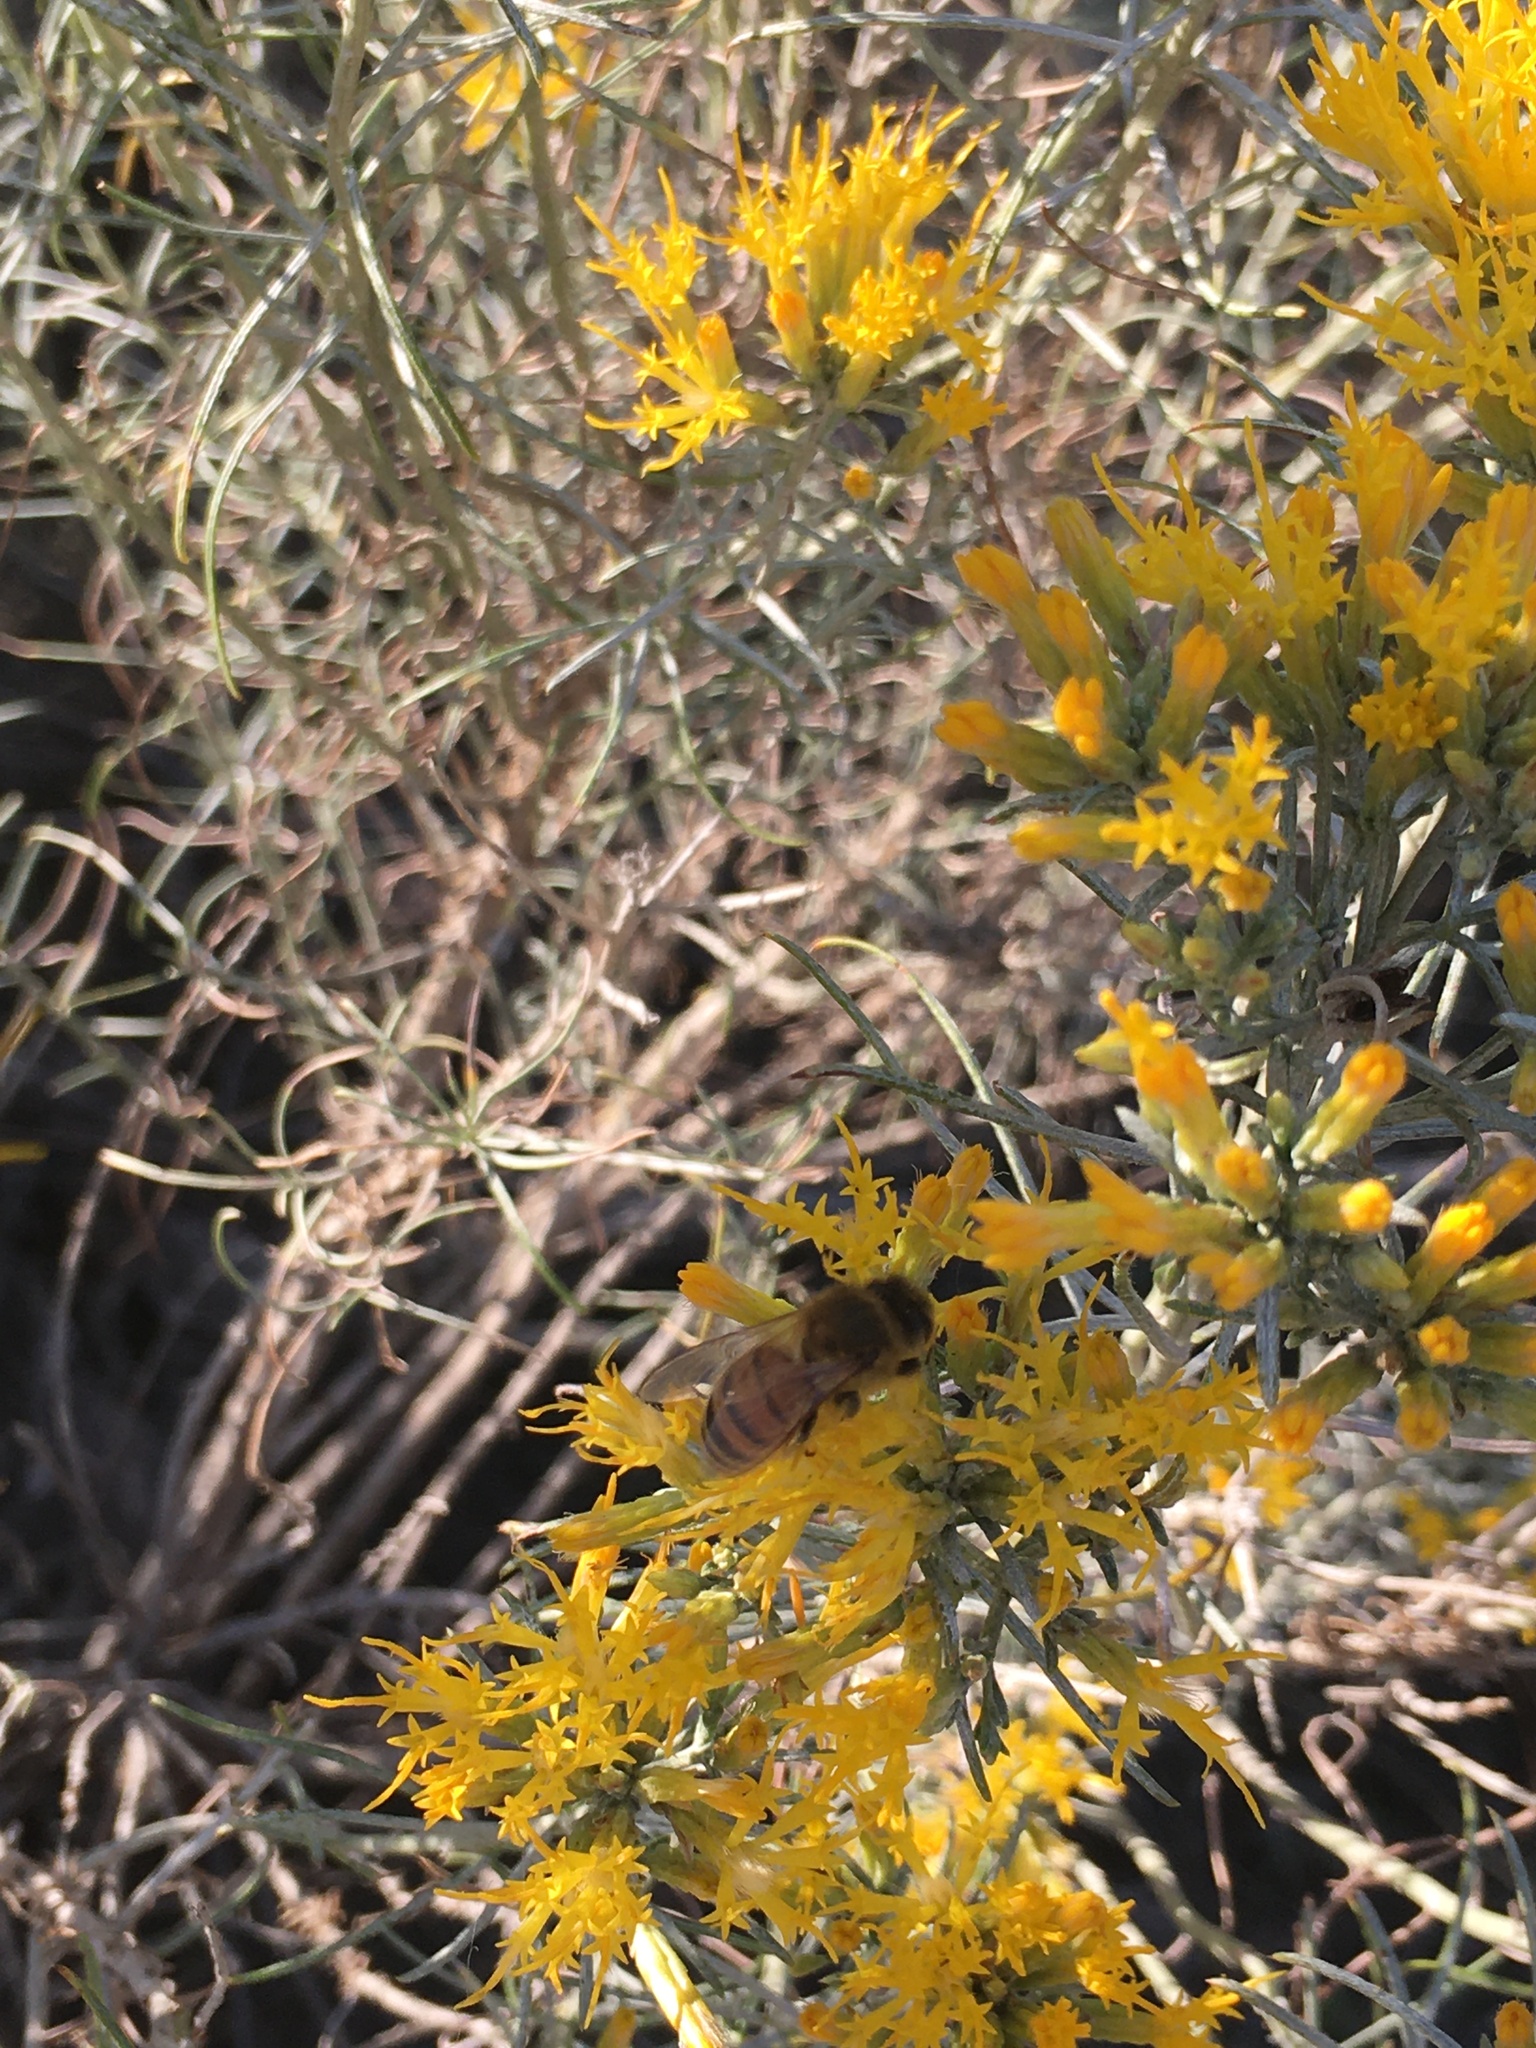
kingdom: Animalia
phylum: Arthropoda
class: Insecta
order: Hymenoptera
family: Apidae
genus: Apis
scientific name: Apis mellifera
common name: Honey bee
